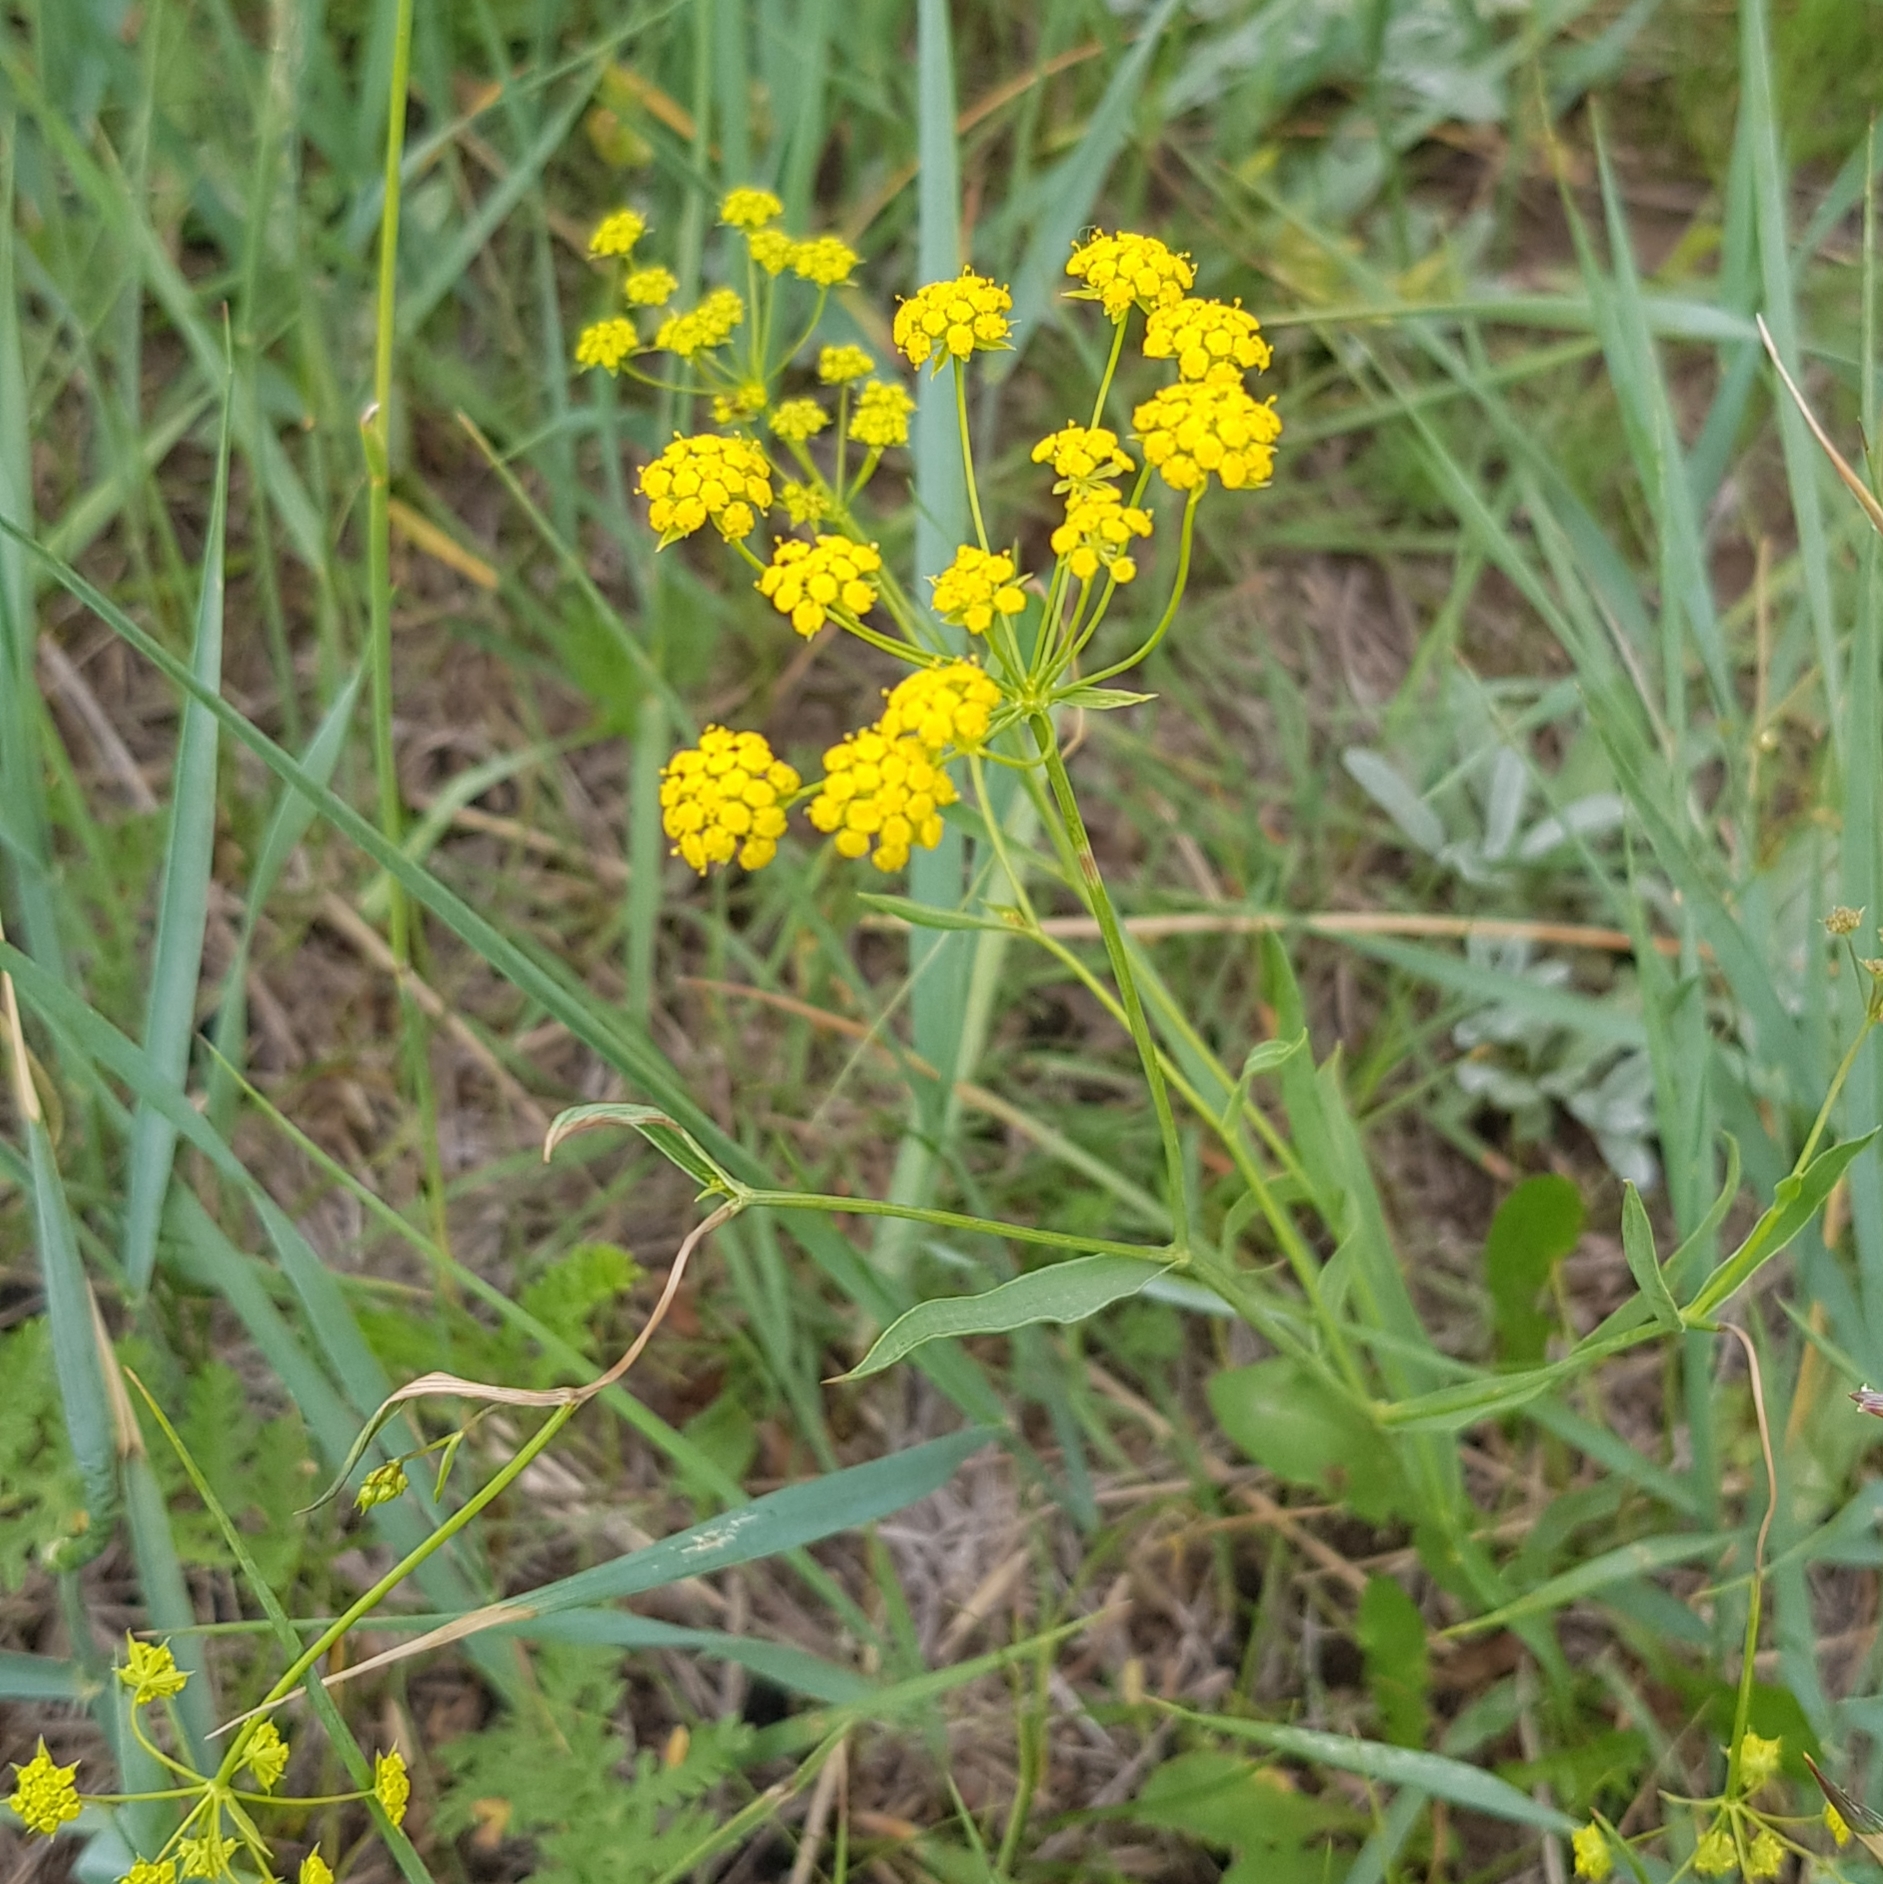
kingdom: Plantae
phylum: Tracheophyta
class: Magnoliopsida
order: Apiales
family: Apiaceae
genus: Bupleurum
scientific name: Bupleurum scorzonerifolium
